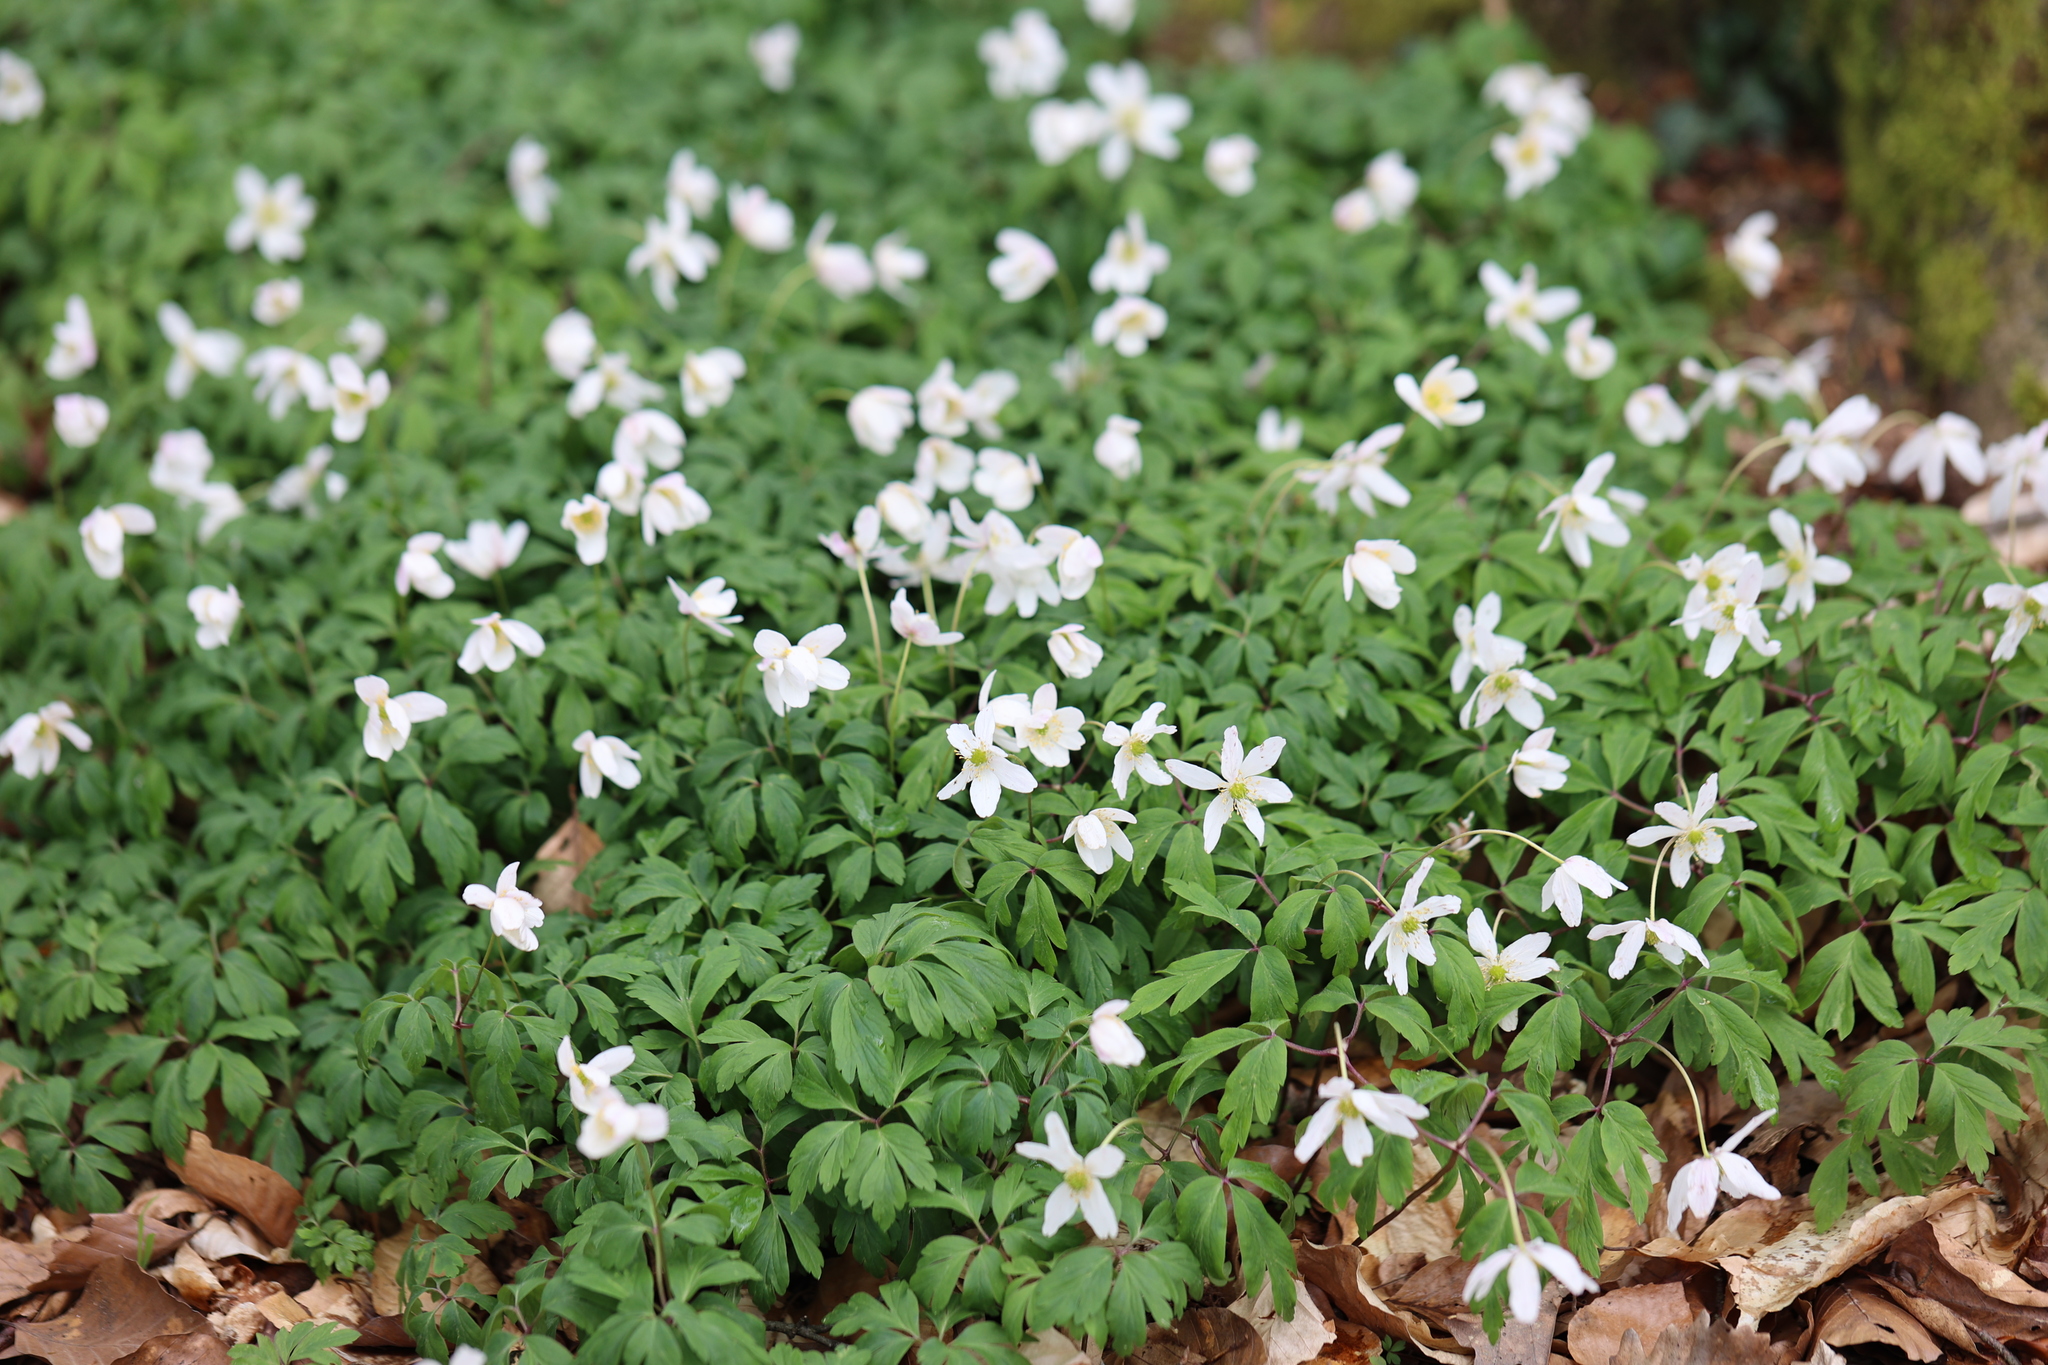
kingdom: Plantae
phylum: Tracheophyta
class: Magnoliopsida
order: Ranunculales
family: Ranunculaceae
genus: Anemone
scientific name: Anemone nemorosa
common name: Wood anemone
